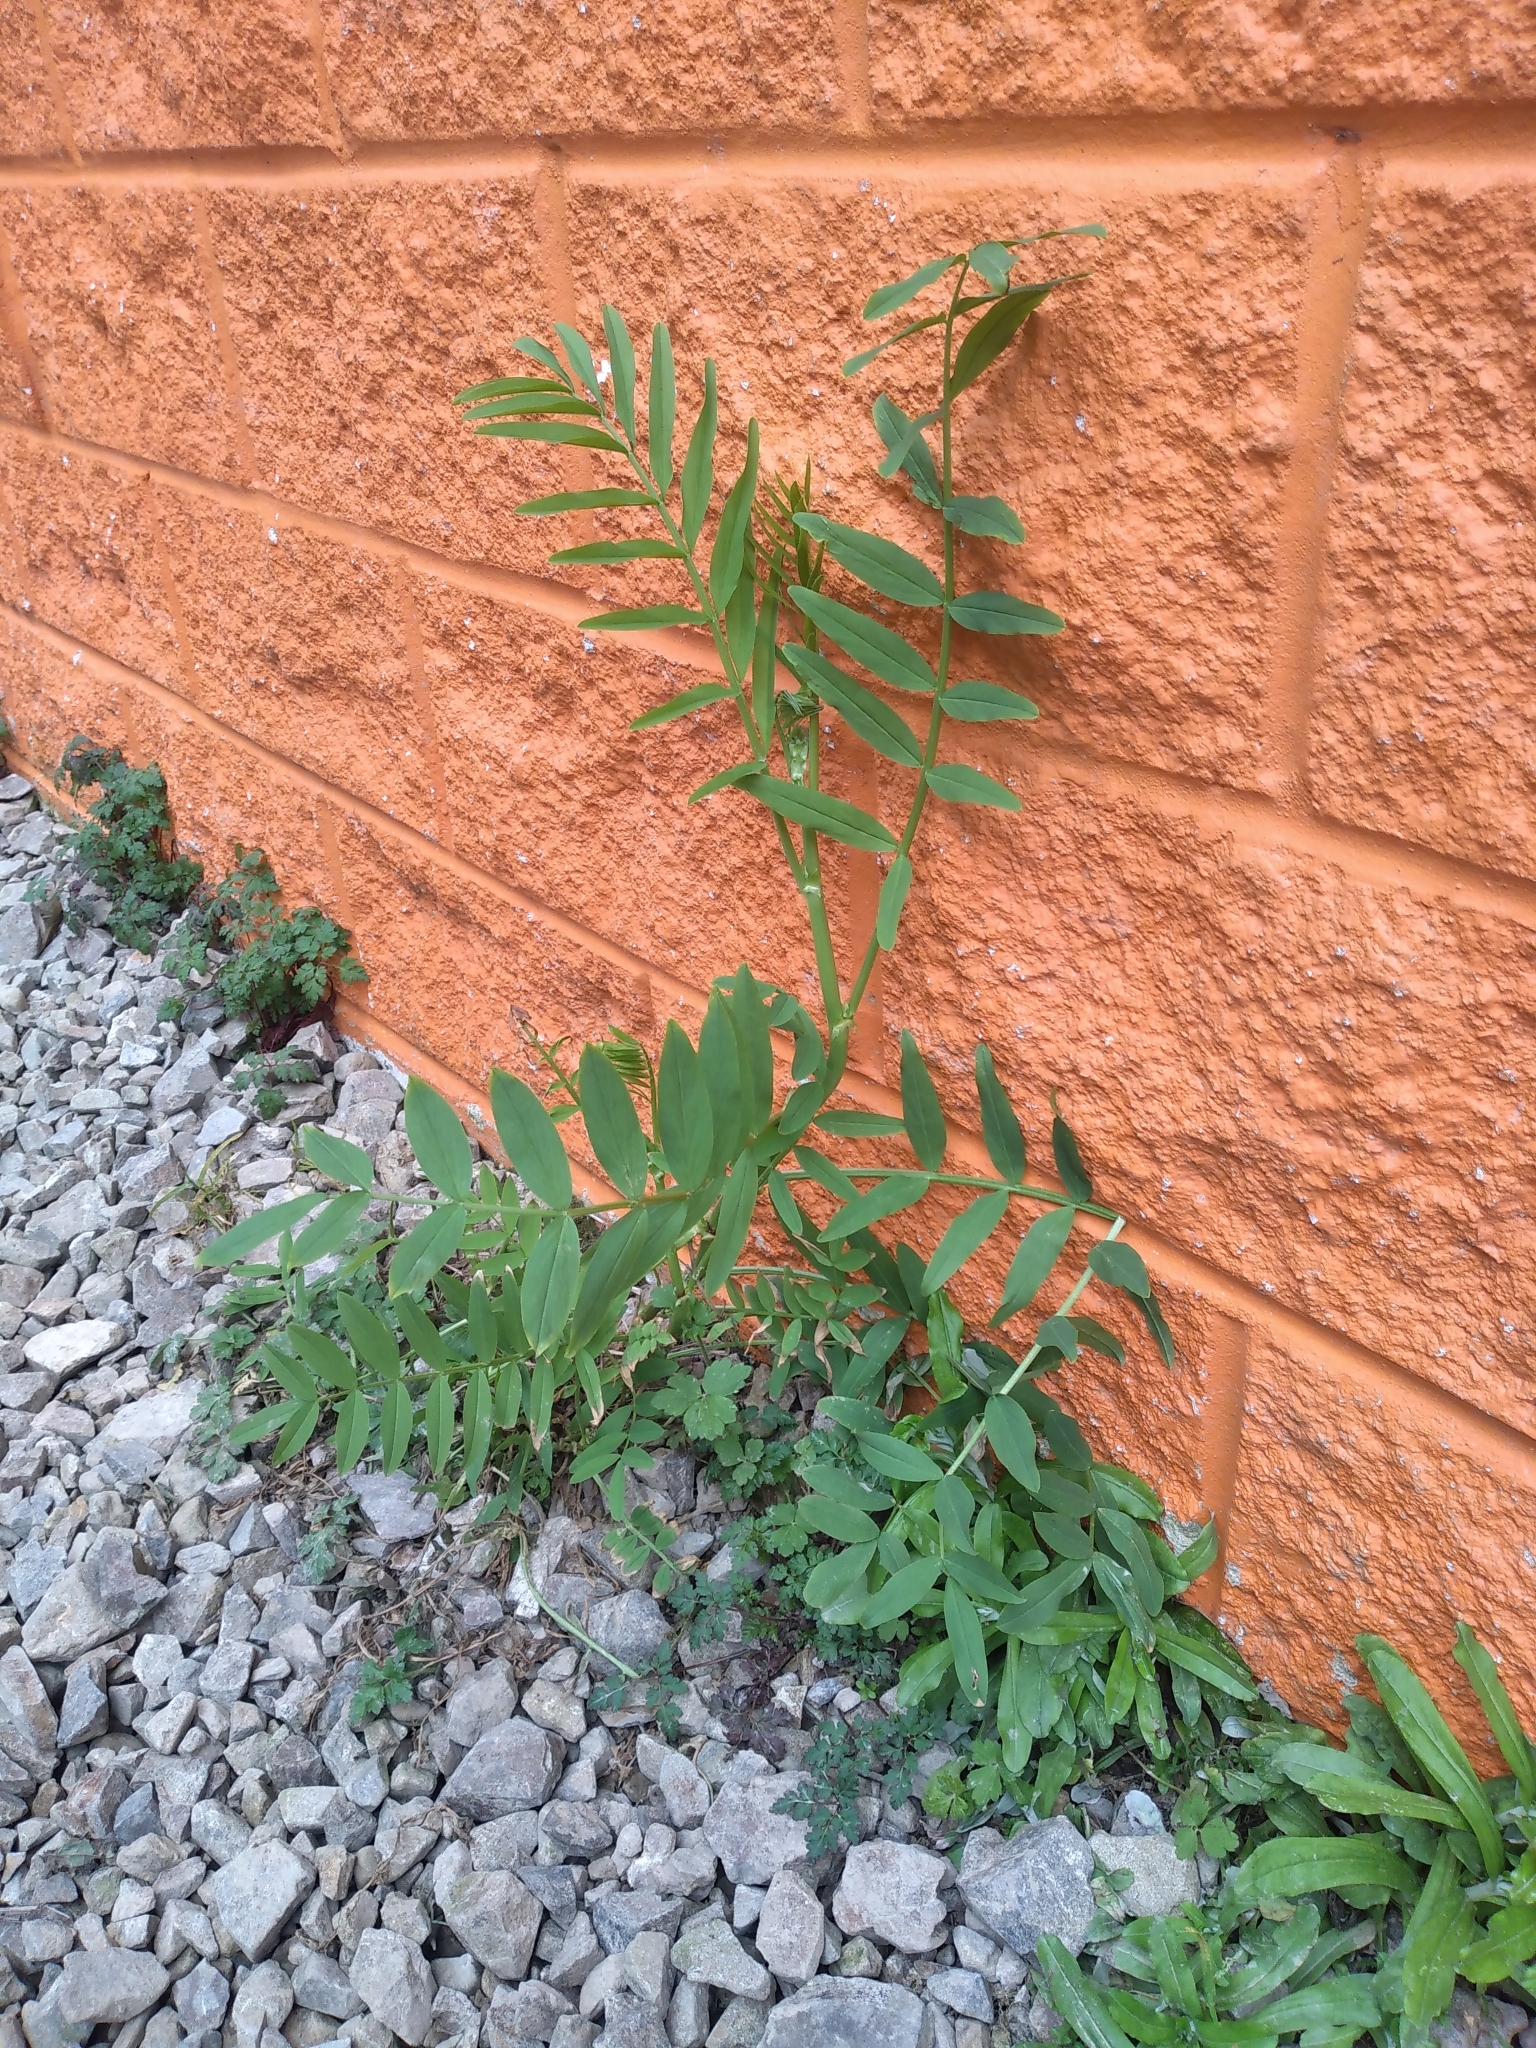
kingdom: Plantae
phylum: Tracheophyta
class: Magnoliopsida
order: Fabales
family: Fabaceae
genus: Galega
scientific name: Galega officinalis
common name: Goat's-rue
